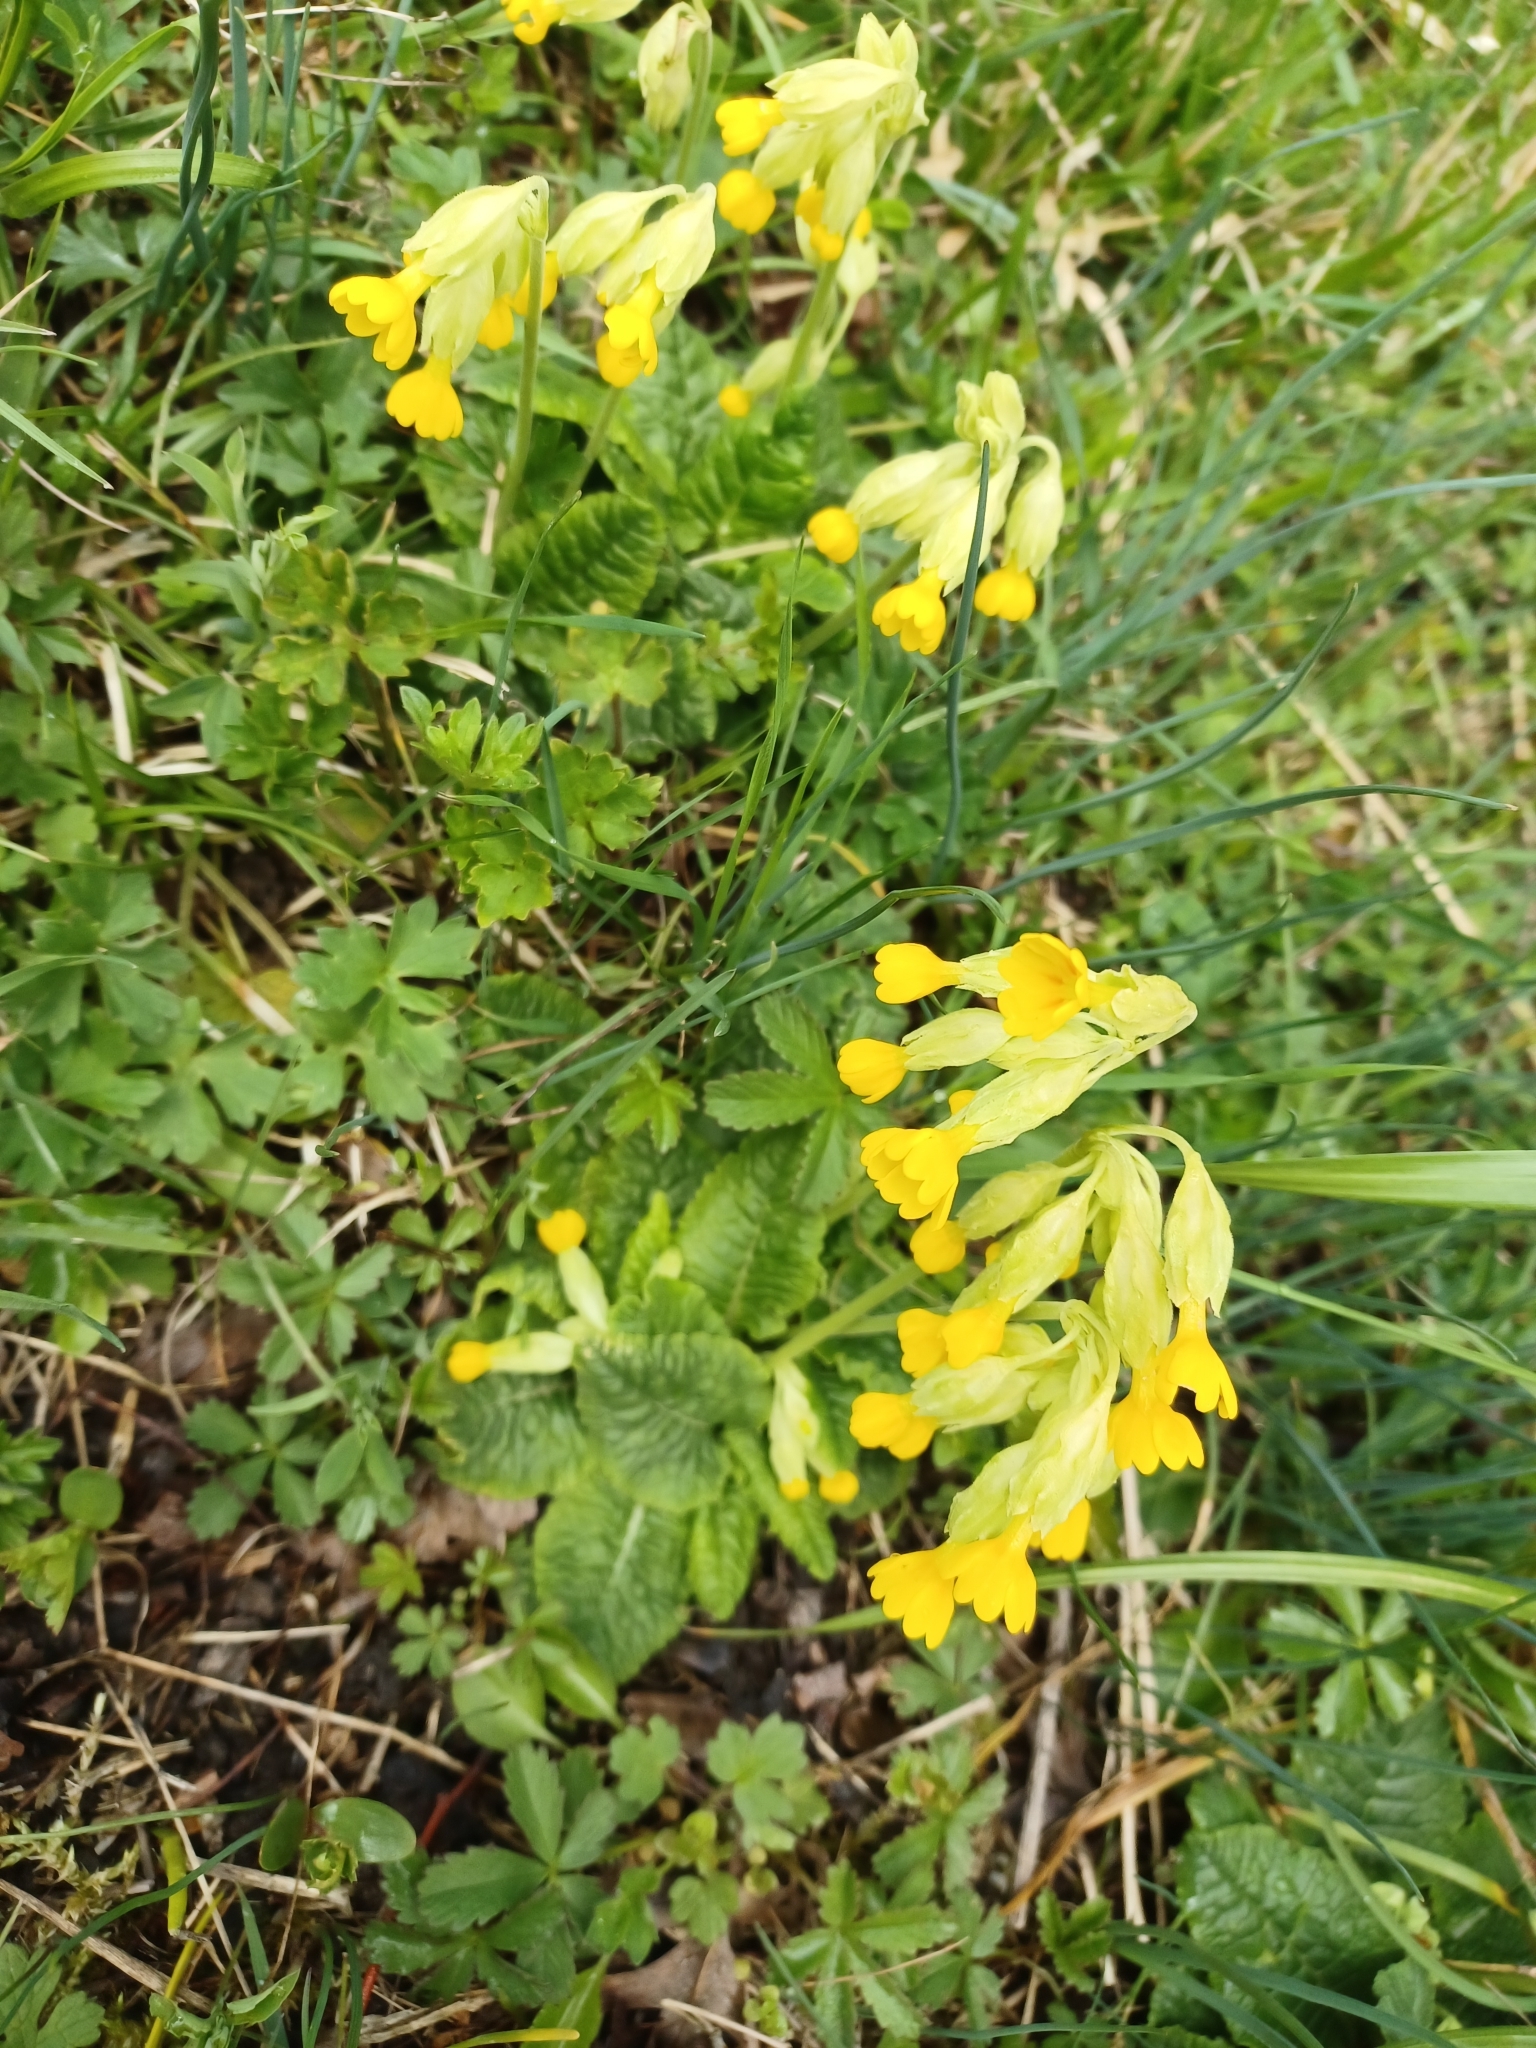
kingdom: Plantae
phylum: Tracheophyta
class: Magnoliopsida
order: Ericales
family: Primulaceae
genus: Primula
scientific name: Primula veris
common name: Cowslip
